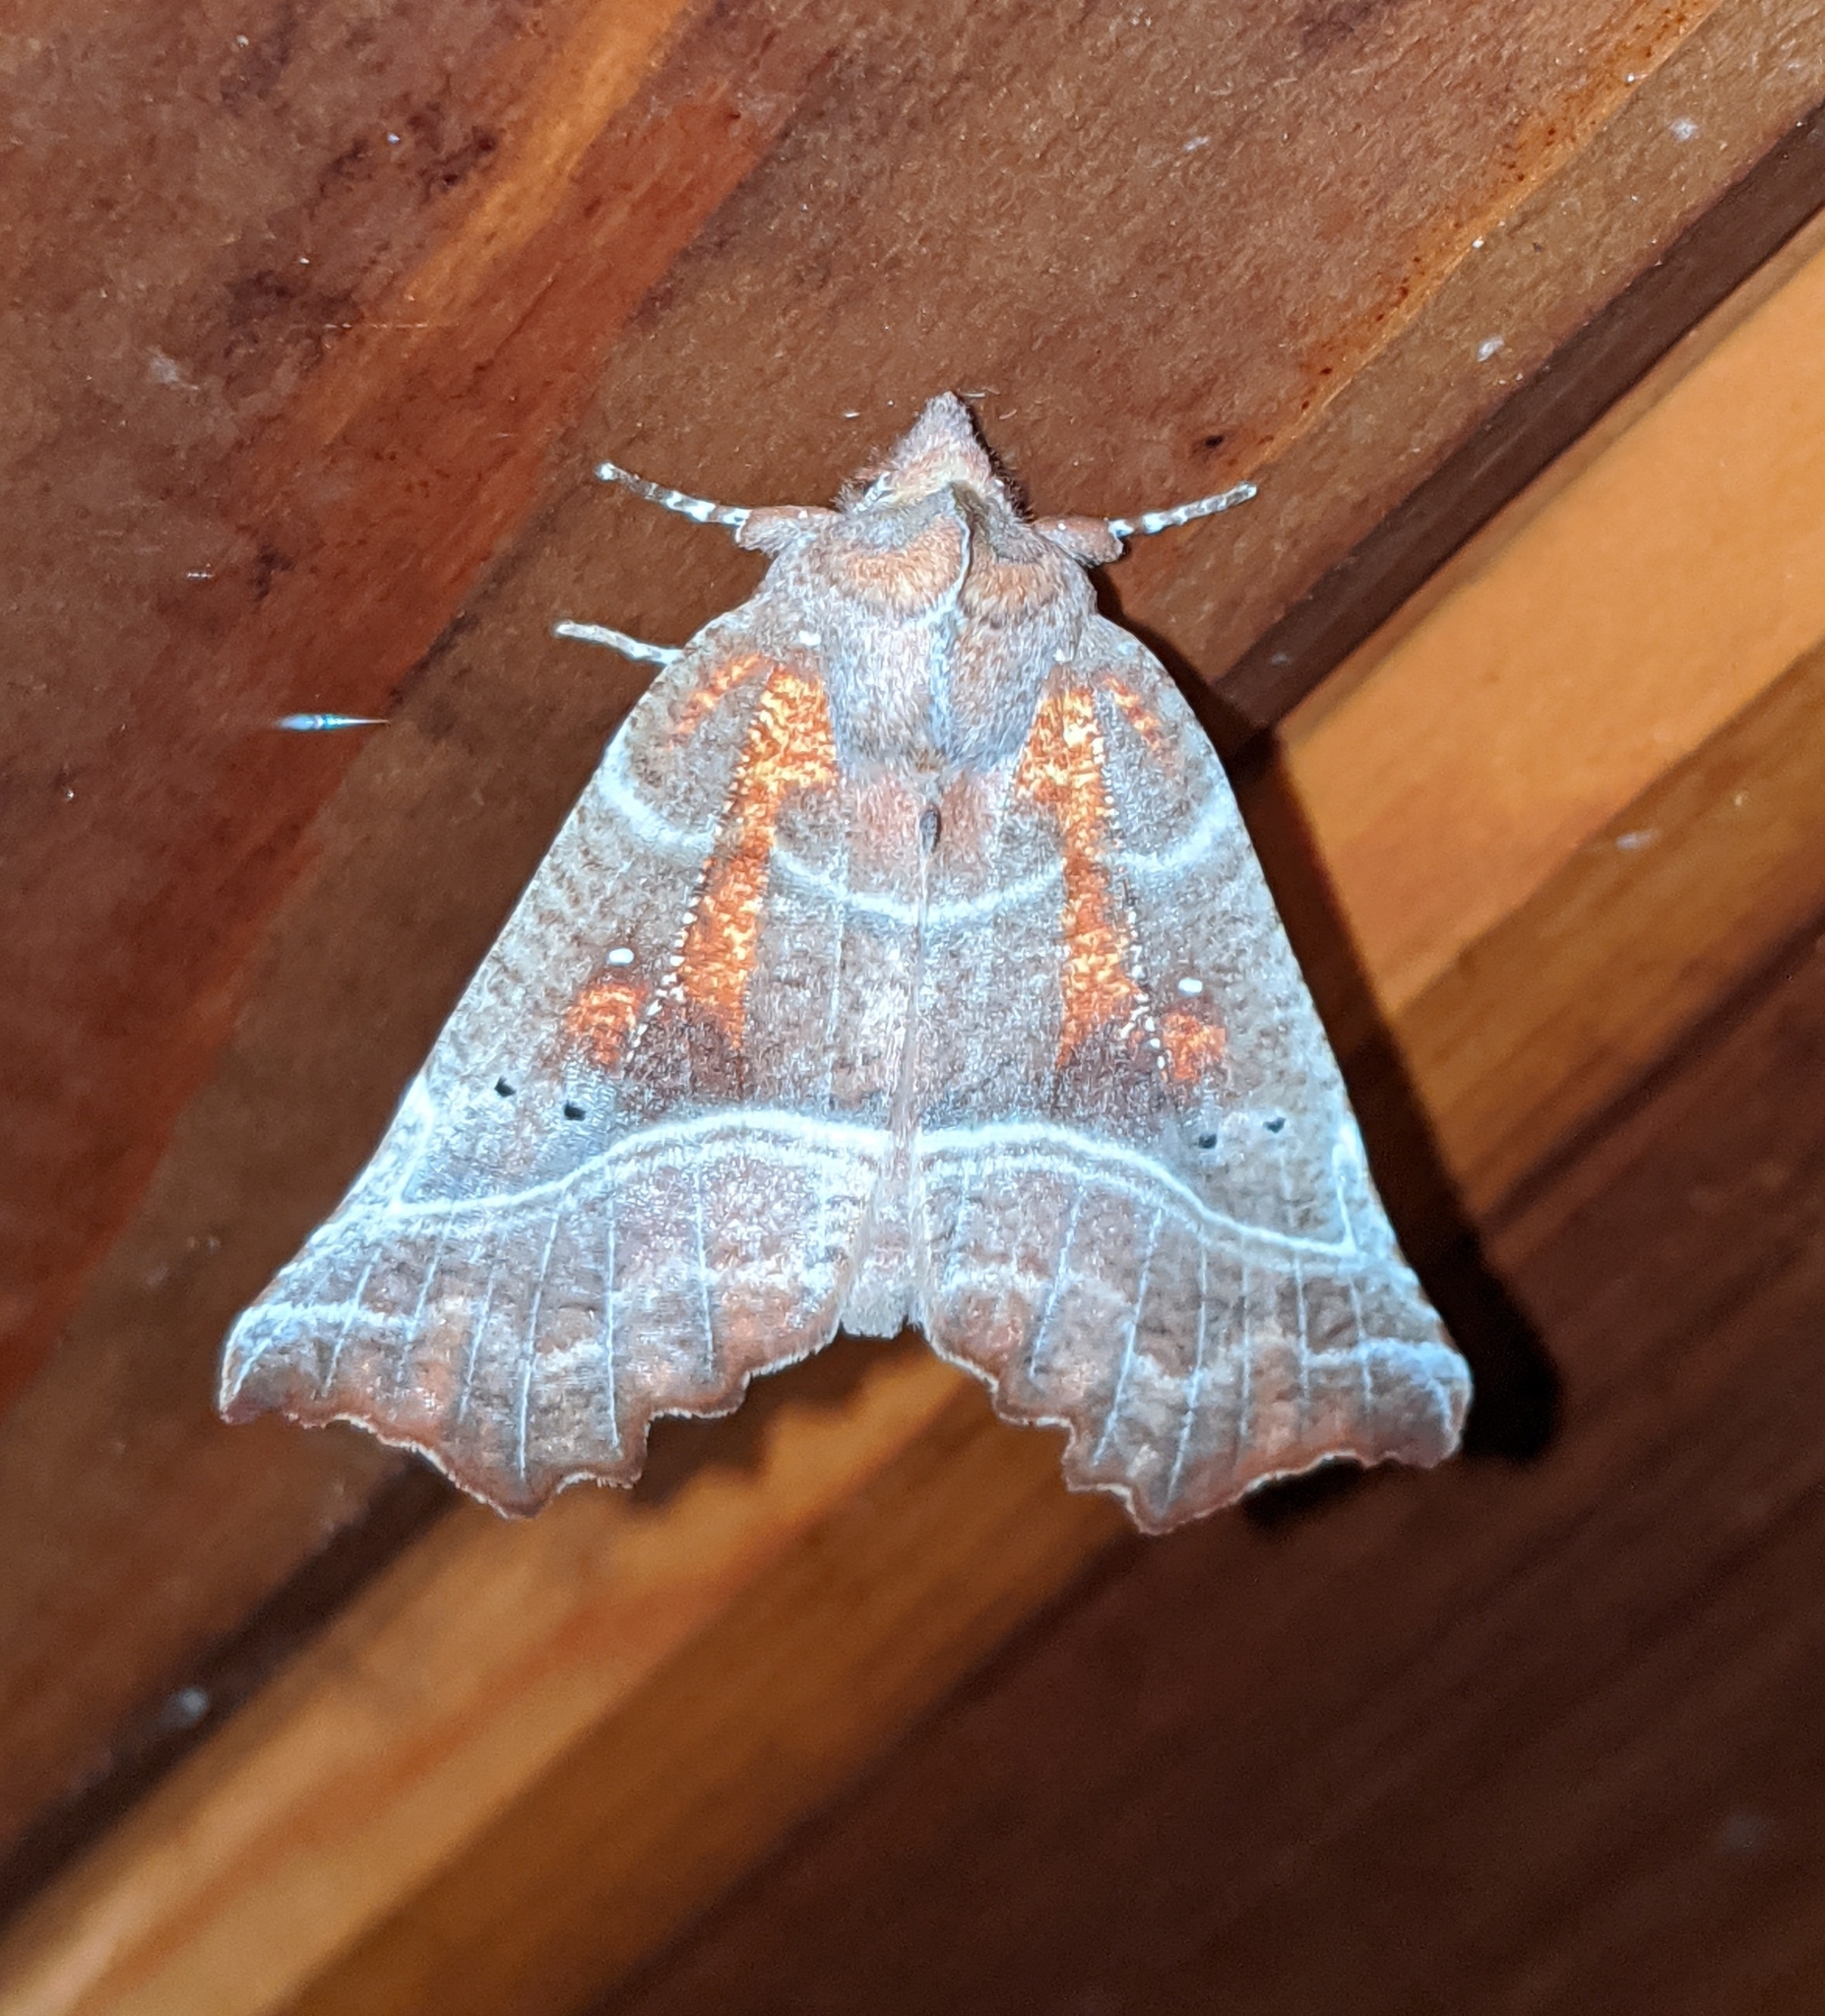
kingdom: Animalia
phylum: Arthropoda
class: Insecta
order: Lepidoptera
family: Erebidae
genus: Scoliopteryx
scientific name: Scoliopteryx libatrix
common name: Herald
